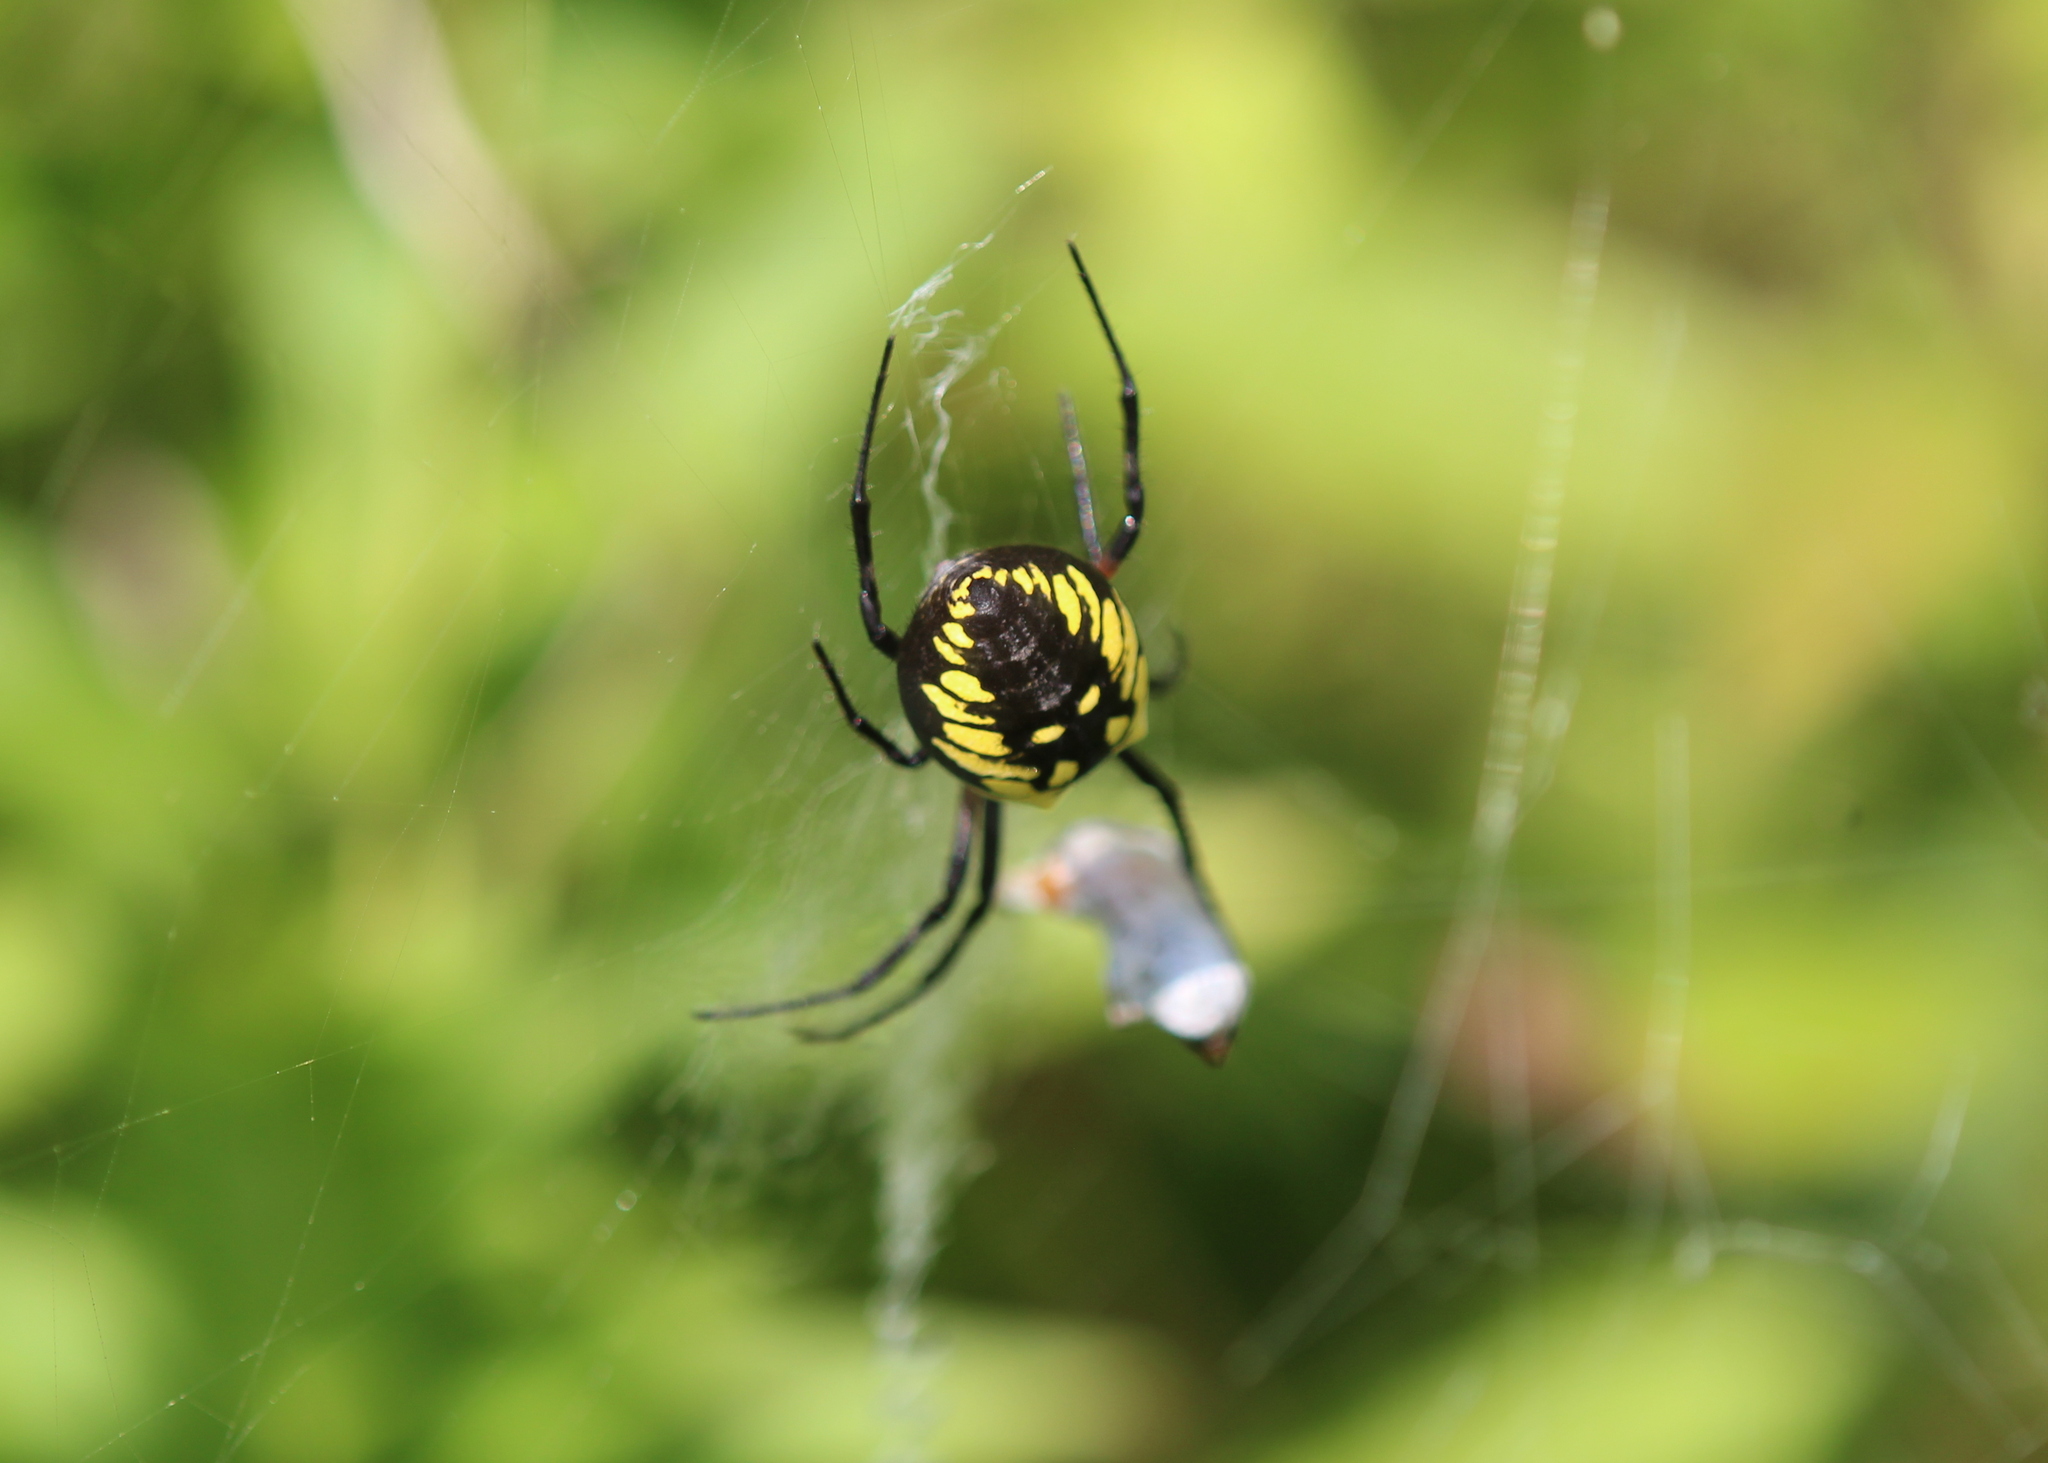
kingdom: Animalia
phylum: Arthropoda
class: Arachnida
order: Araneae
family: Araneidae
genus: Argiope
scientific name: Argiope aurantia
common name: Orb weavers
